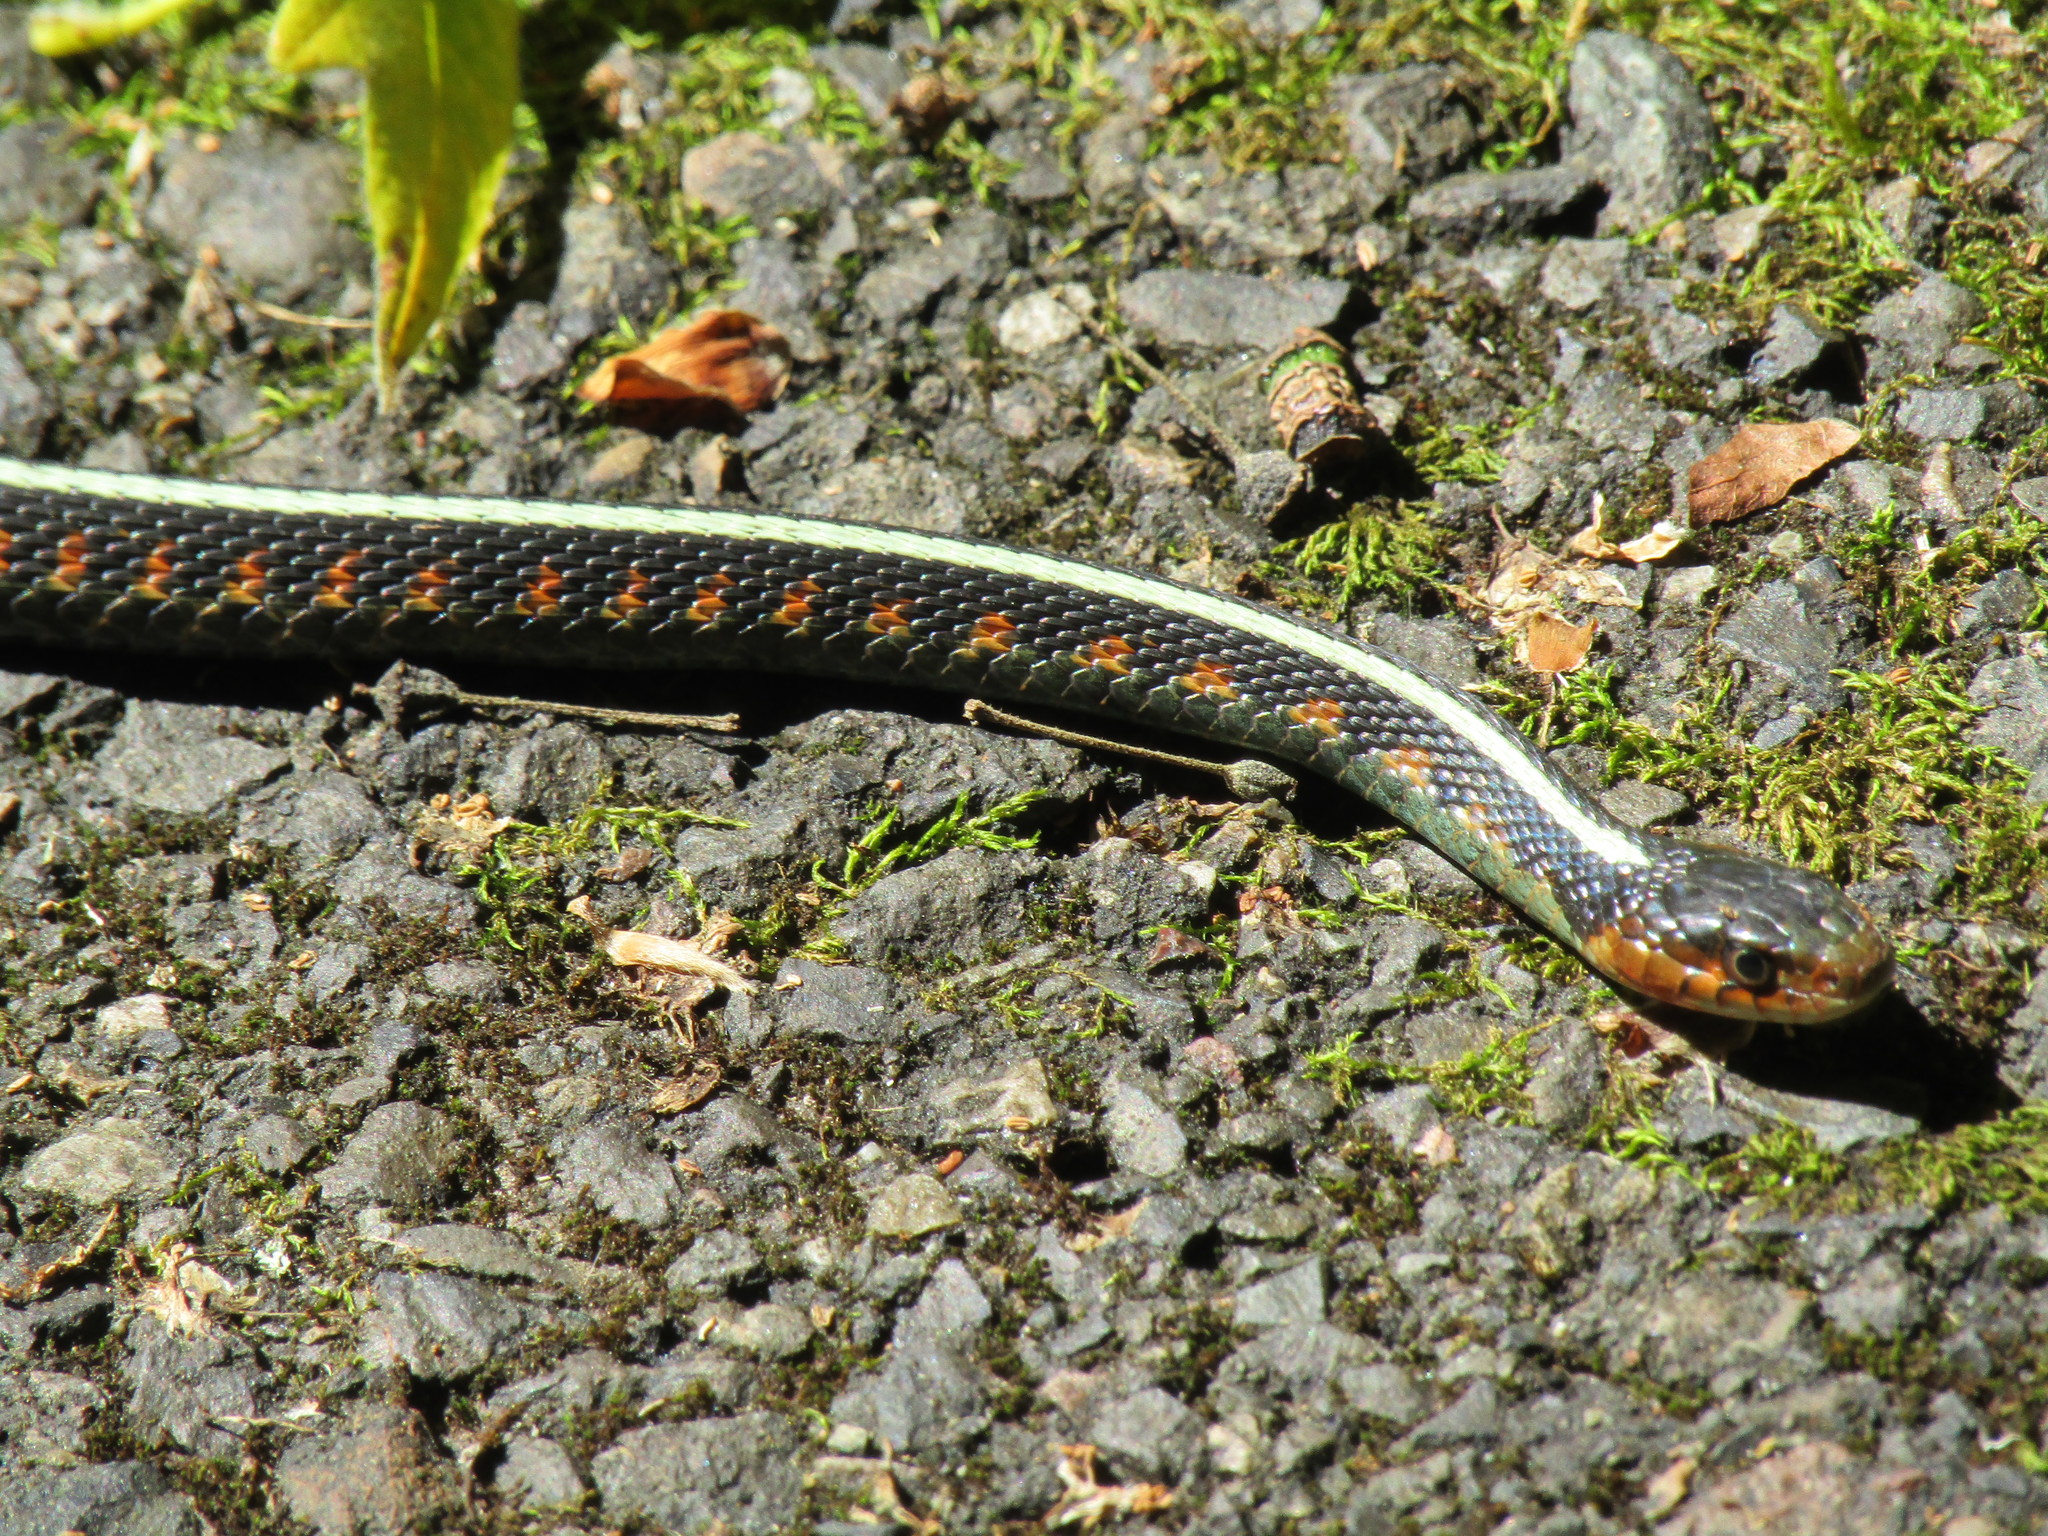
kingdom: Animalia
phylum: Chordata
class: Squamata
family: Colubridae
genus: Thamnophis
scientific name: Thamnophis sirtalis
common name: Common garter snake
